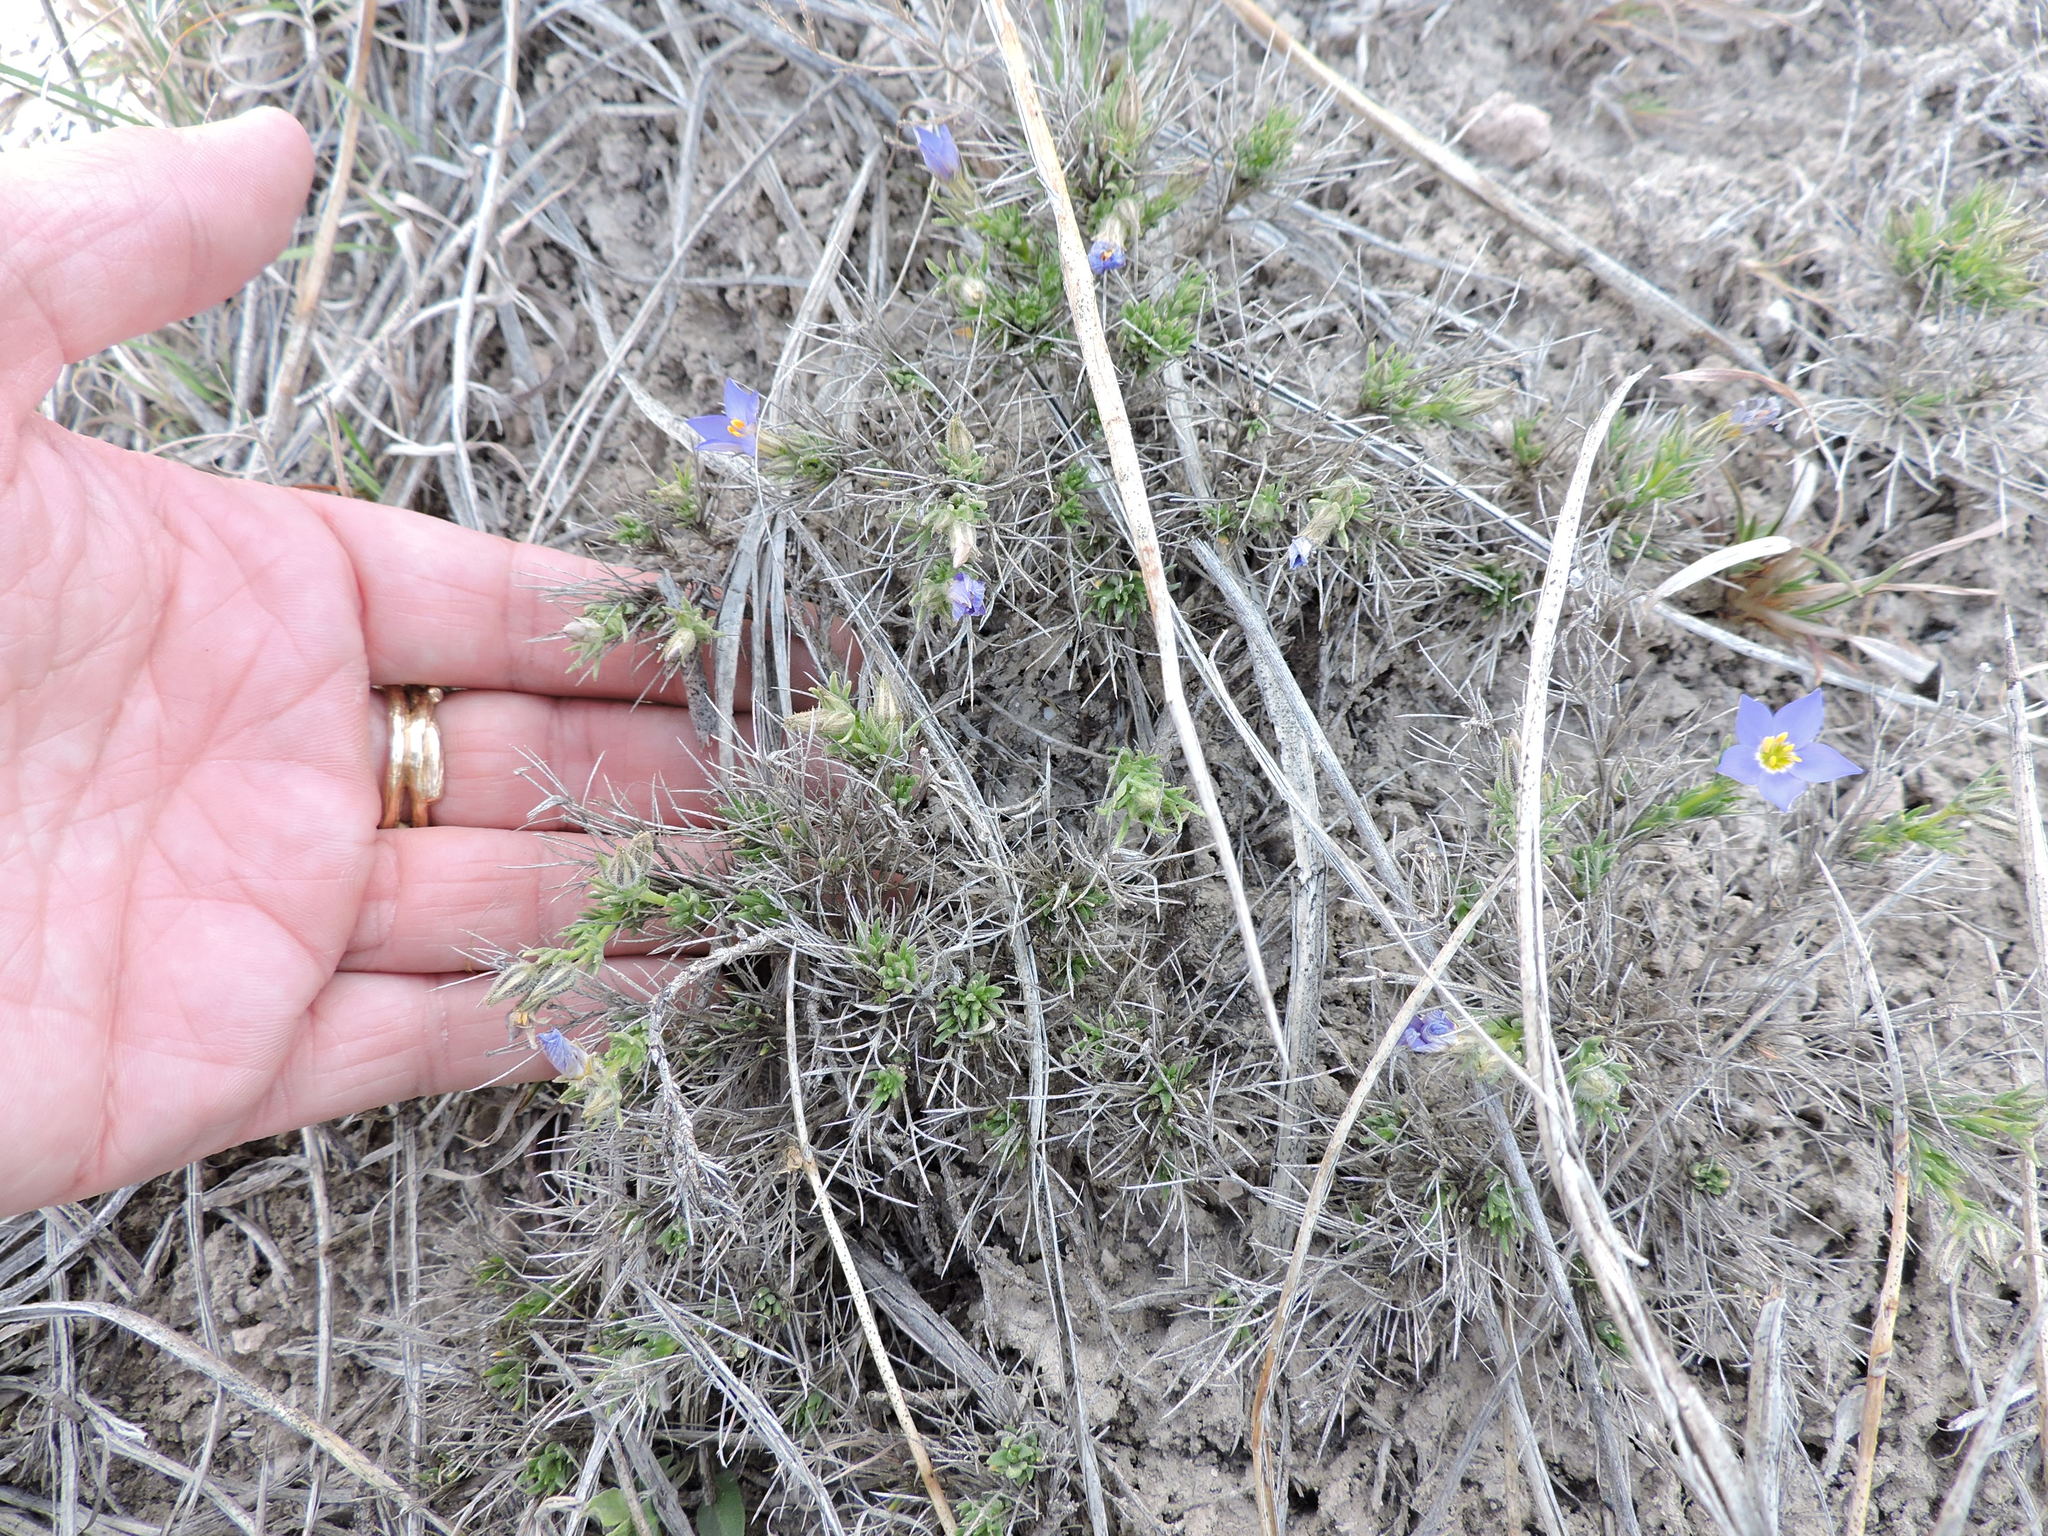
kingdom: Plantae
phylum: Tracheophyta
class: Magnoliopsida
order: Ericales
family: Polemoniaceae
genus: Giliastrum
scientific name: Giliastrum acerosum
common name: Bluebowls
